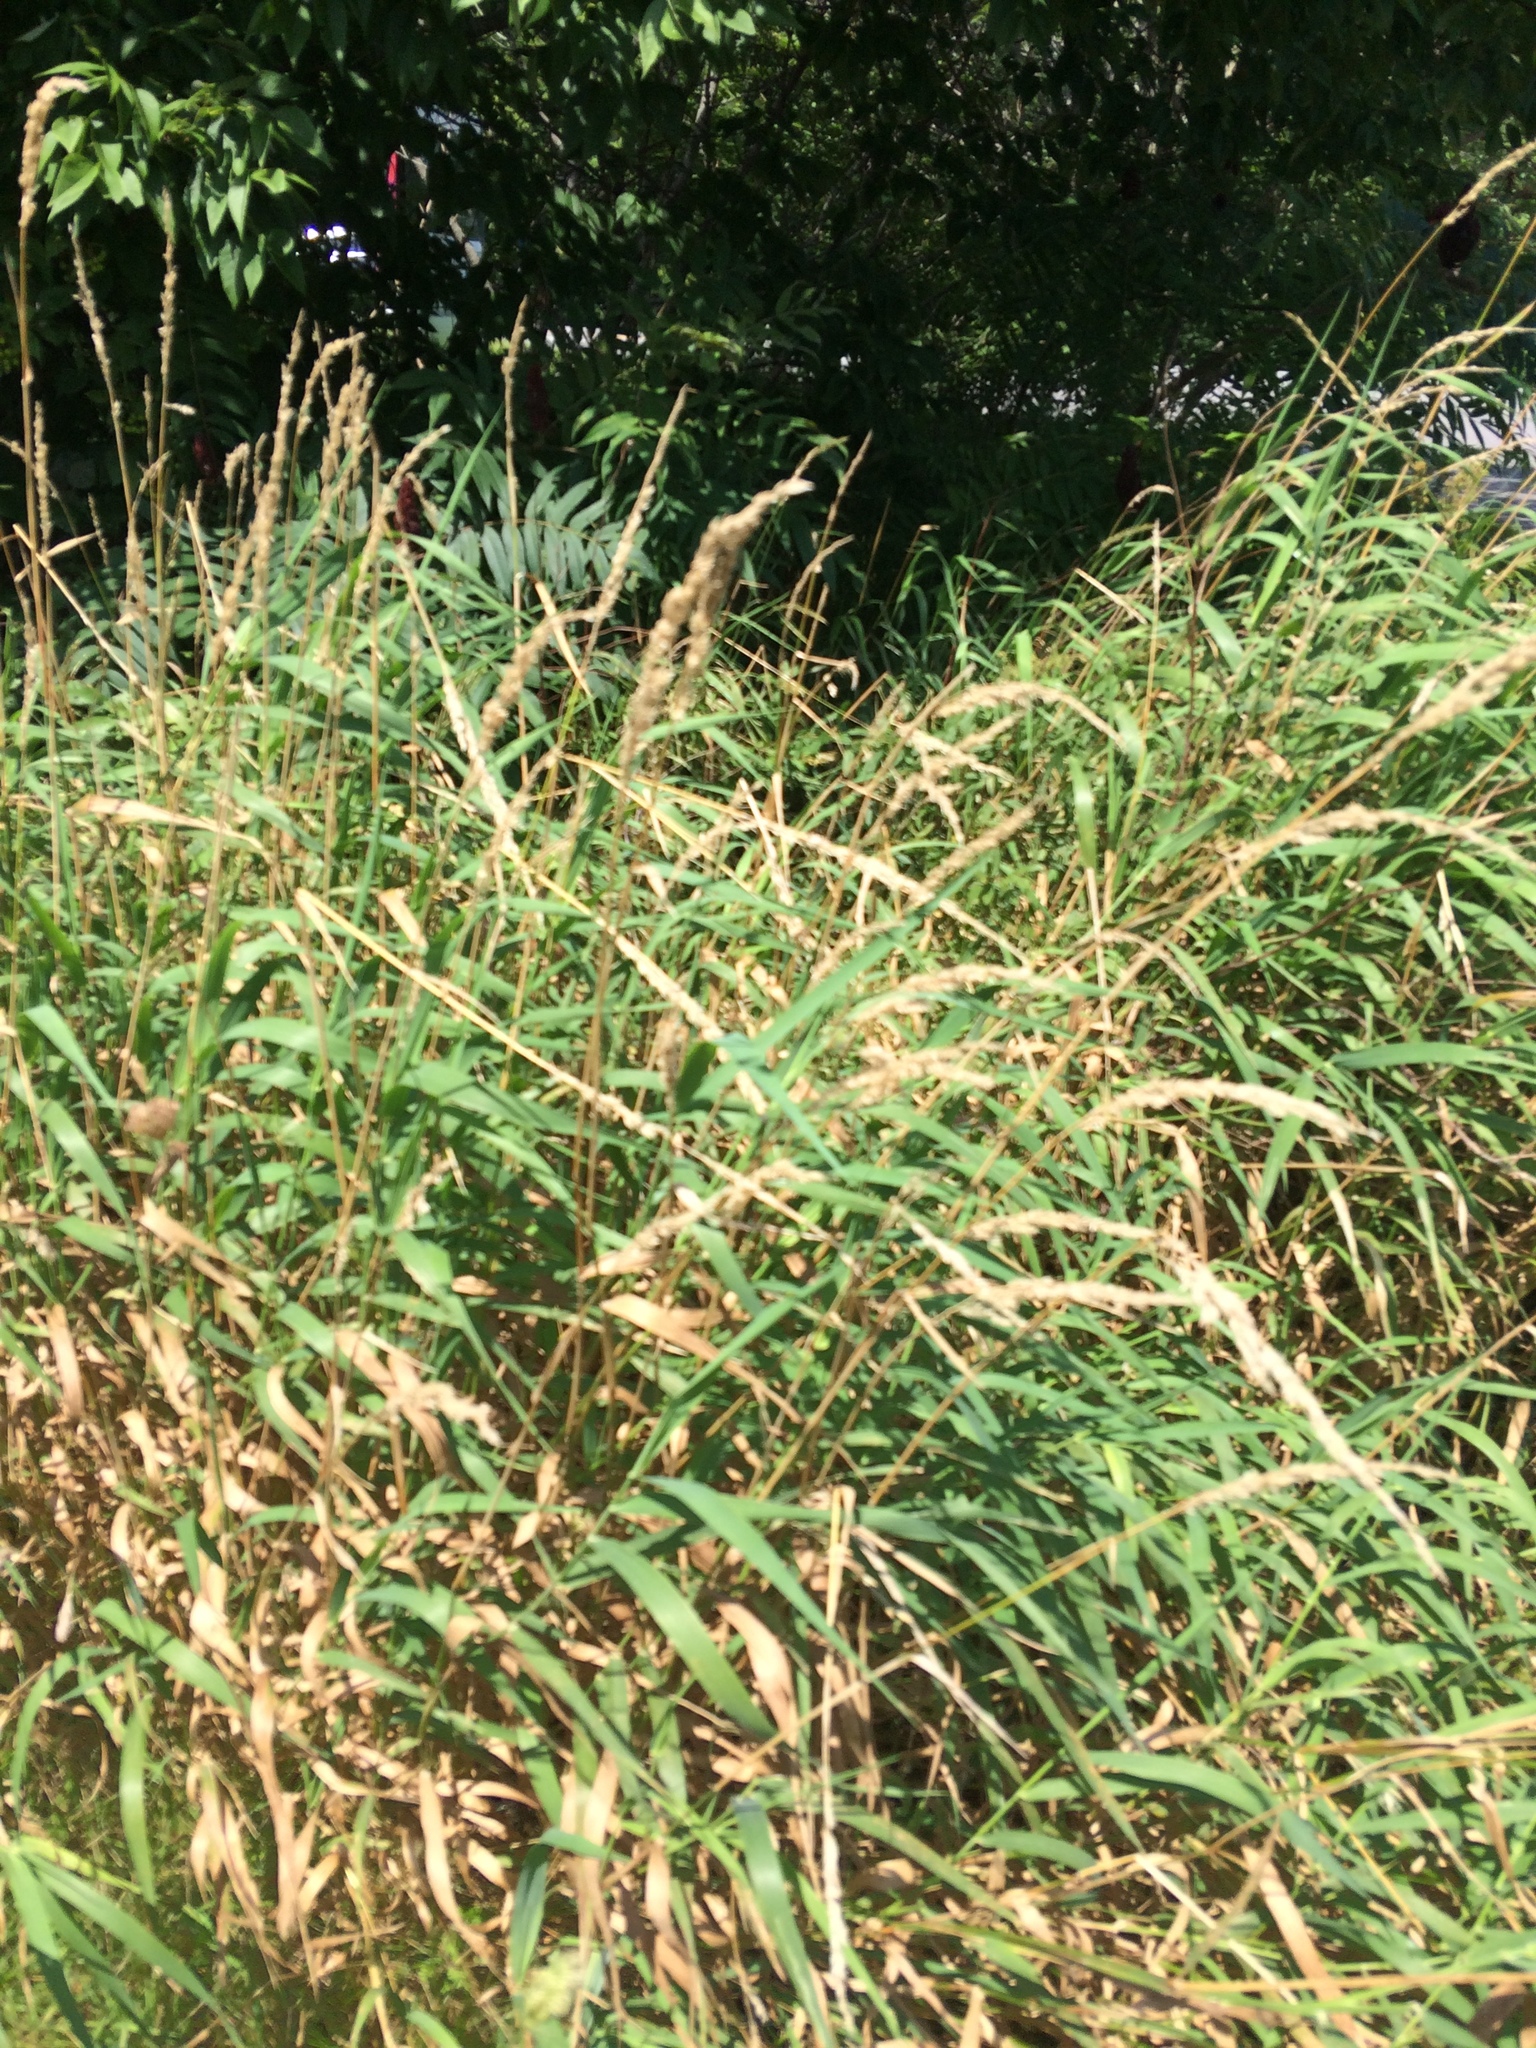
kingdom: Plantae
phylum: Tracheophyta
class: Liliopsida
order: Poales
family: Poaceae
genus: Phalaris
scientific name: Phalaris arundinacea
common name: Reed canary-grass
